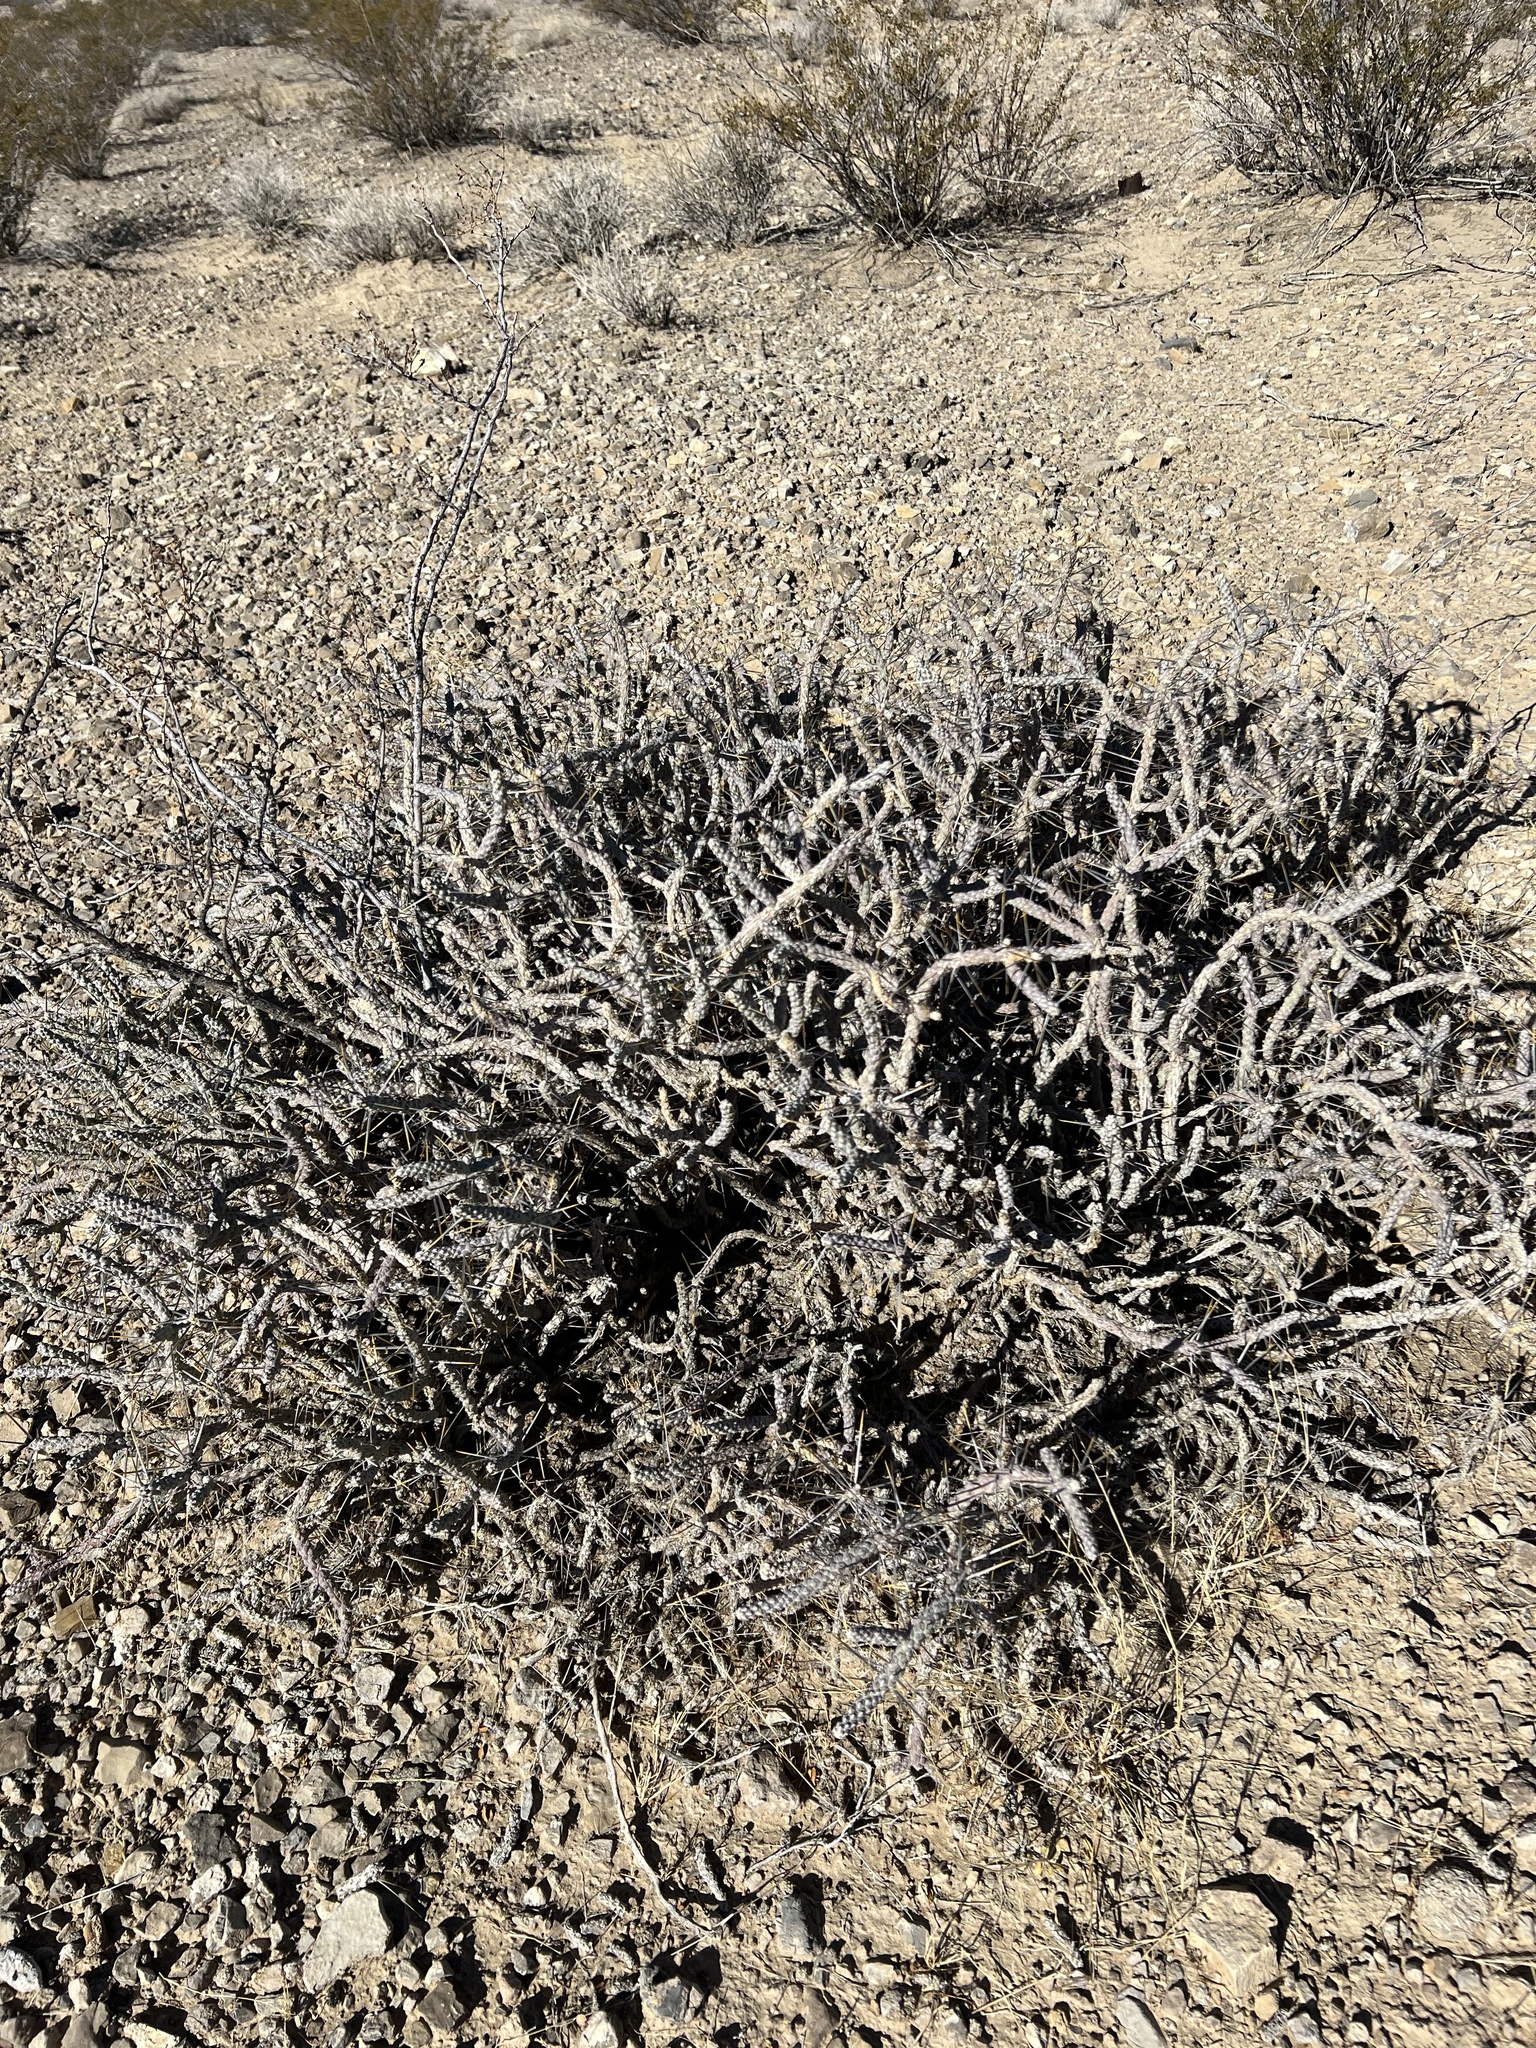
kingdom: Plantae
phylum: Tracheophyta
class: Magnoliopsida
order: Caryophyllales
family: Cactaceae
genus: Cylindropuntia
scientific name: Cylindropuntia ramosissima
